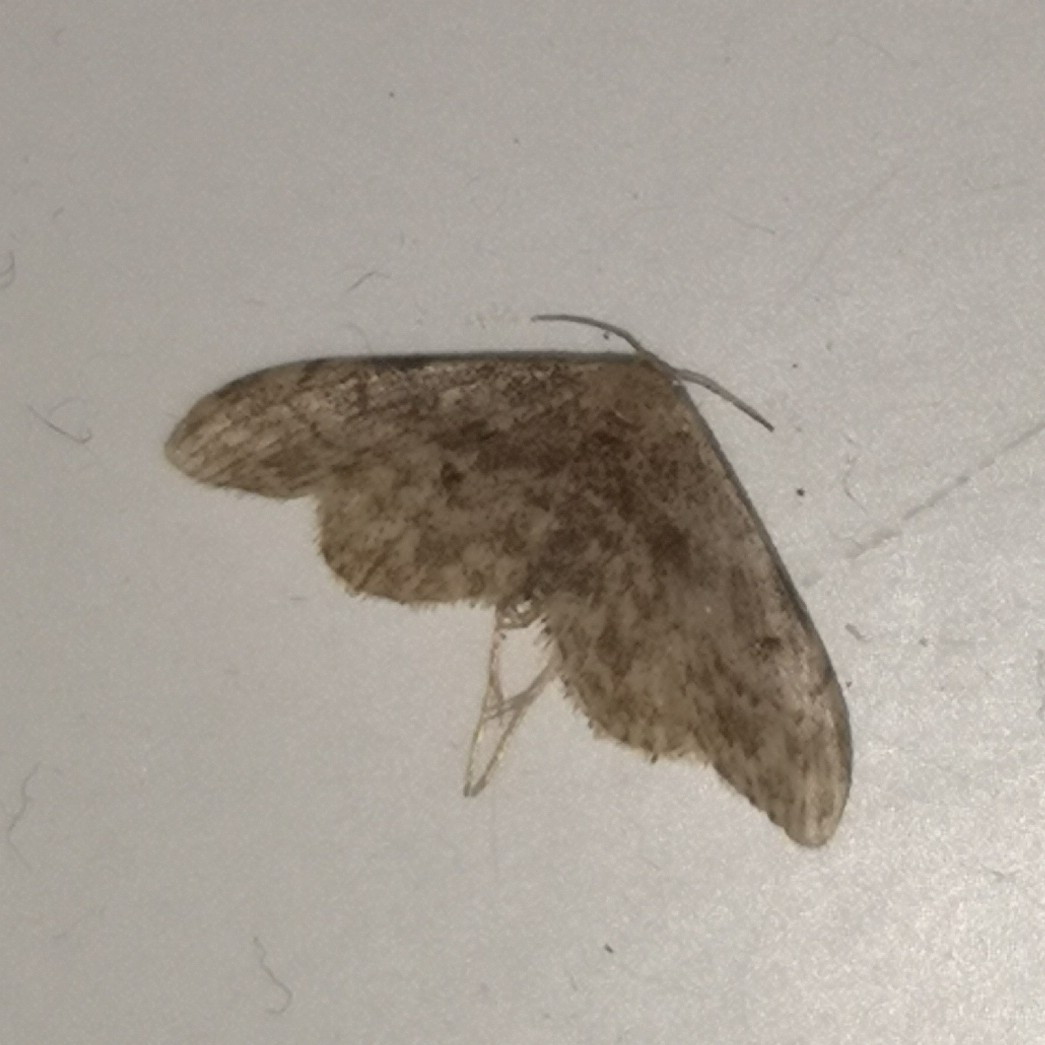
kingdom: Animalia
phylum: Arthropoda
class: Insecta
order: Lepidoptera
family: Geometridae
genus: Idaea
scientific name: Idaea inquinata
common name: Rusty wave
